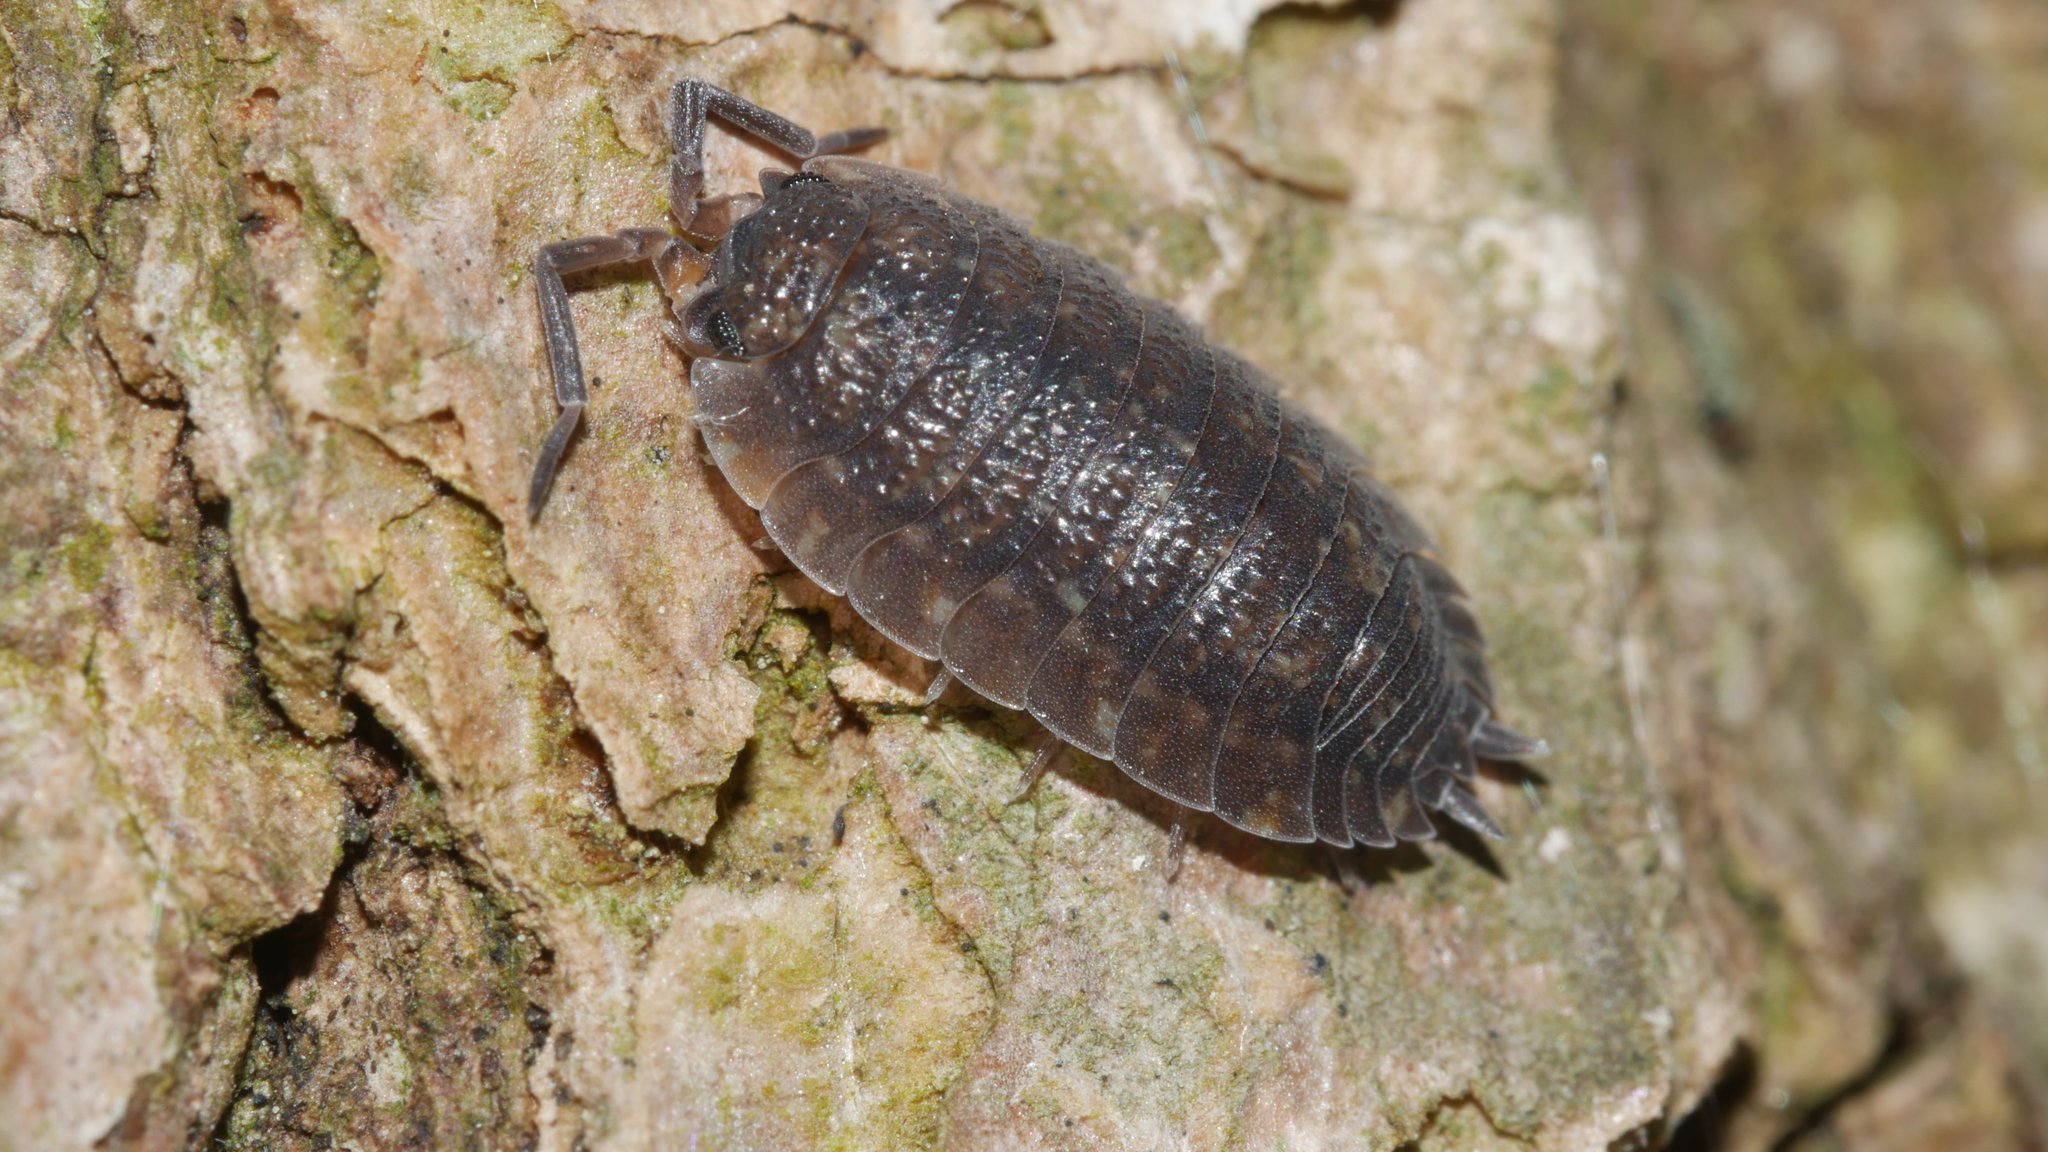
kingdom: Animalia
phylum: Arthropoda
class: Malacostraca
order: Isopoda
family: Porcellionidae
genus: Porcellio
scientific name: Porcellio scaber
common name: Common rough woodlouse
